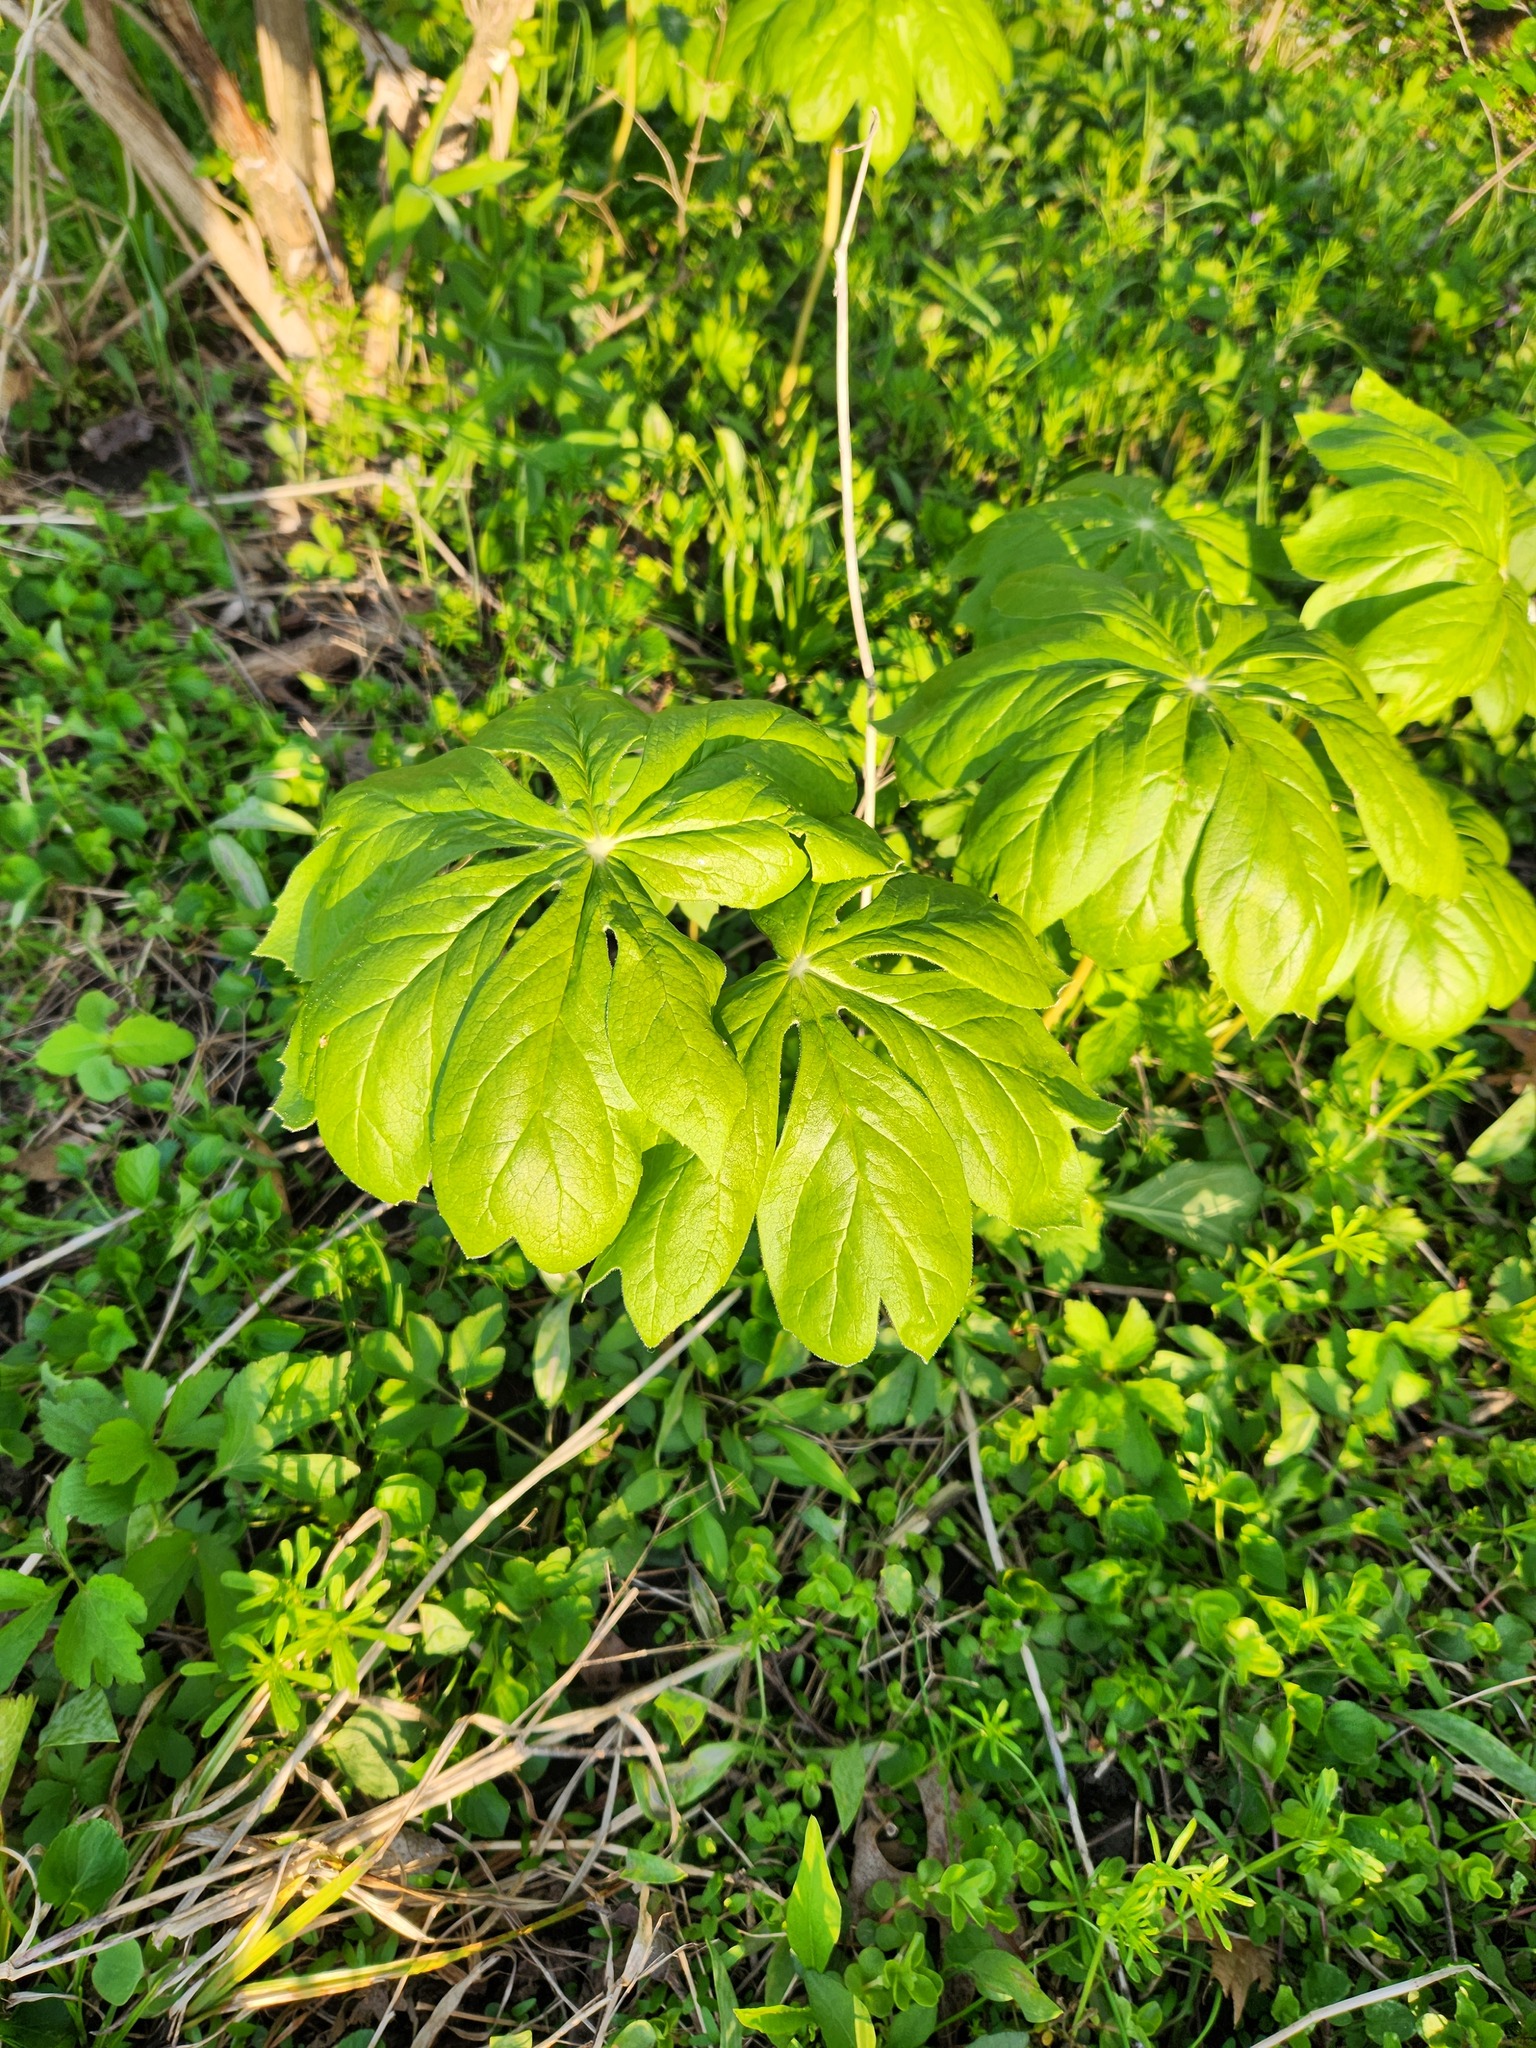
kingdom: Plantae
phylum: Tracheophyta
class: Magnoliopsida
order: Ranunculales
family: Berberidaceae
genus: Podophyllum
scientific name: Podophyllum peltatum
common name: Wild mandrake
